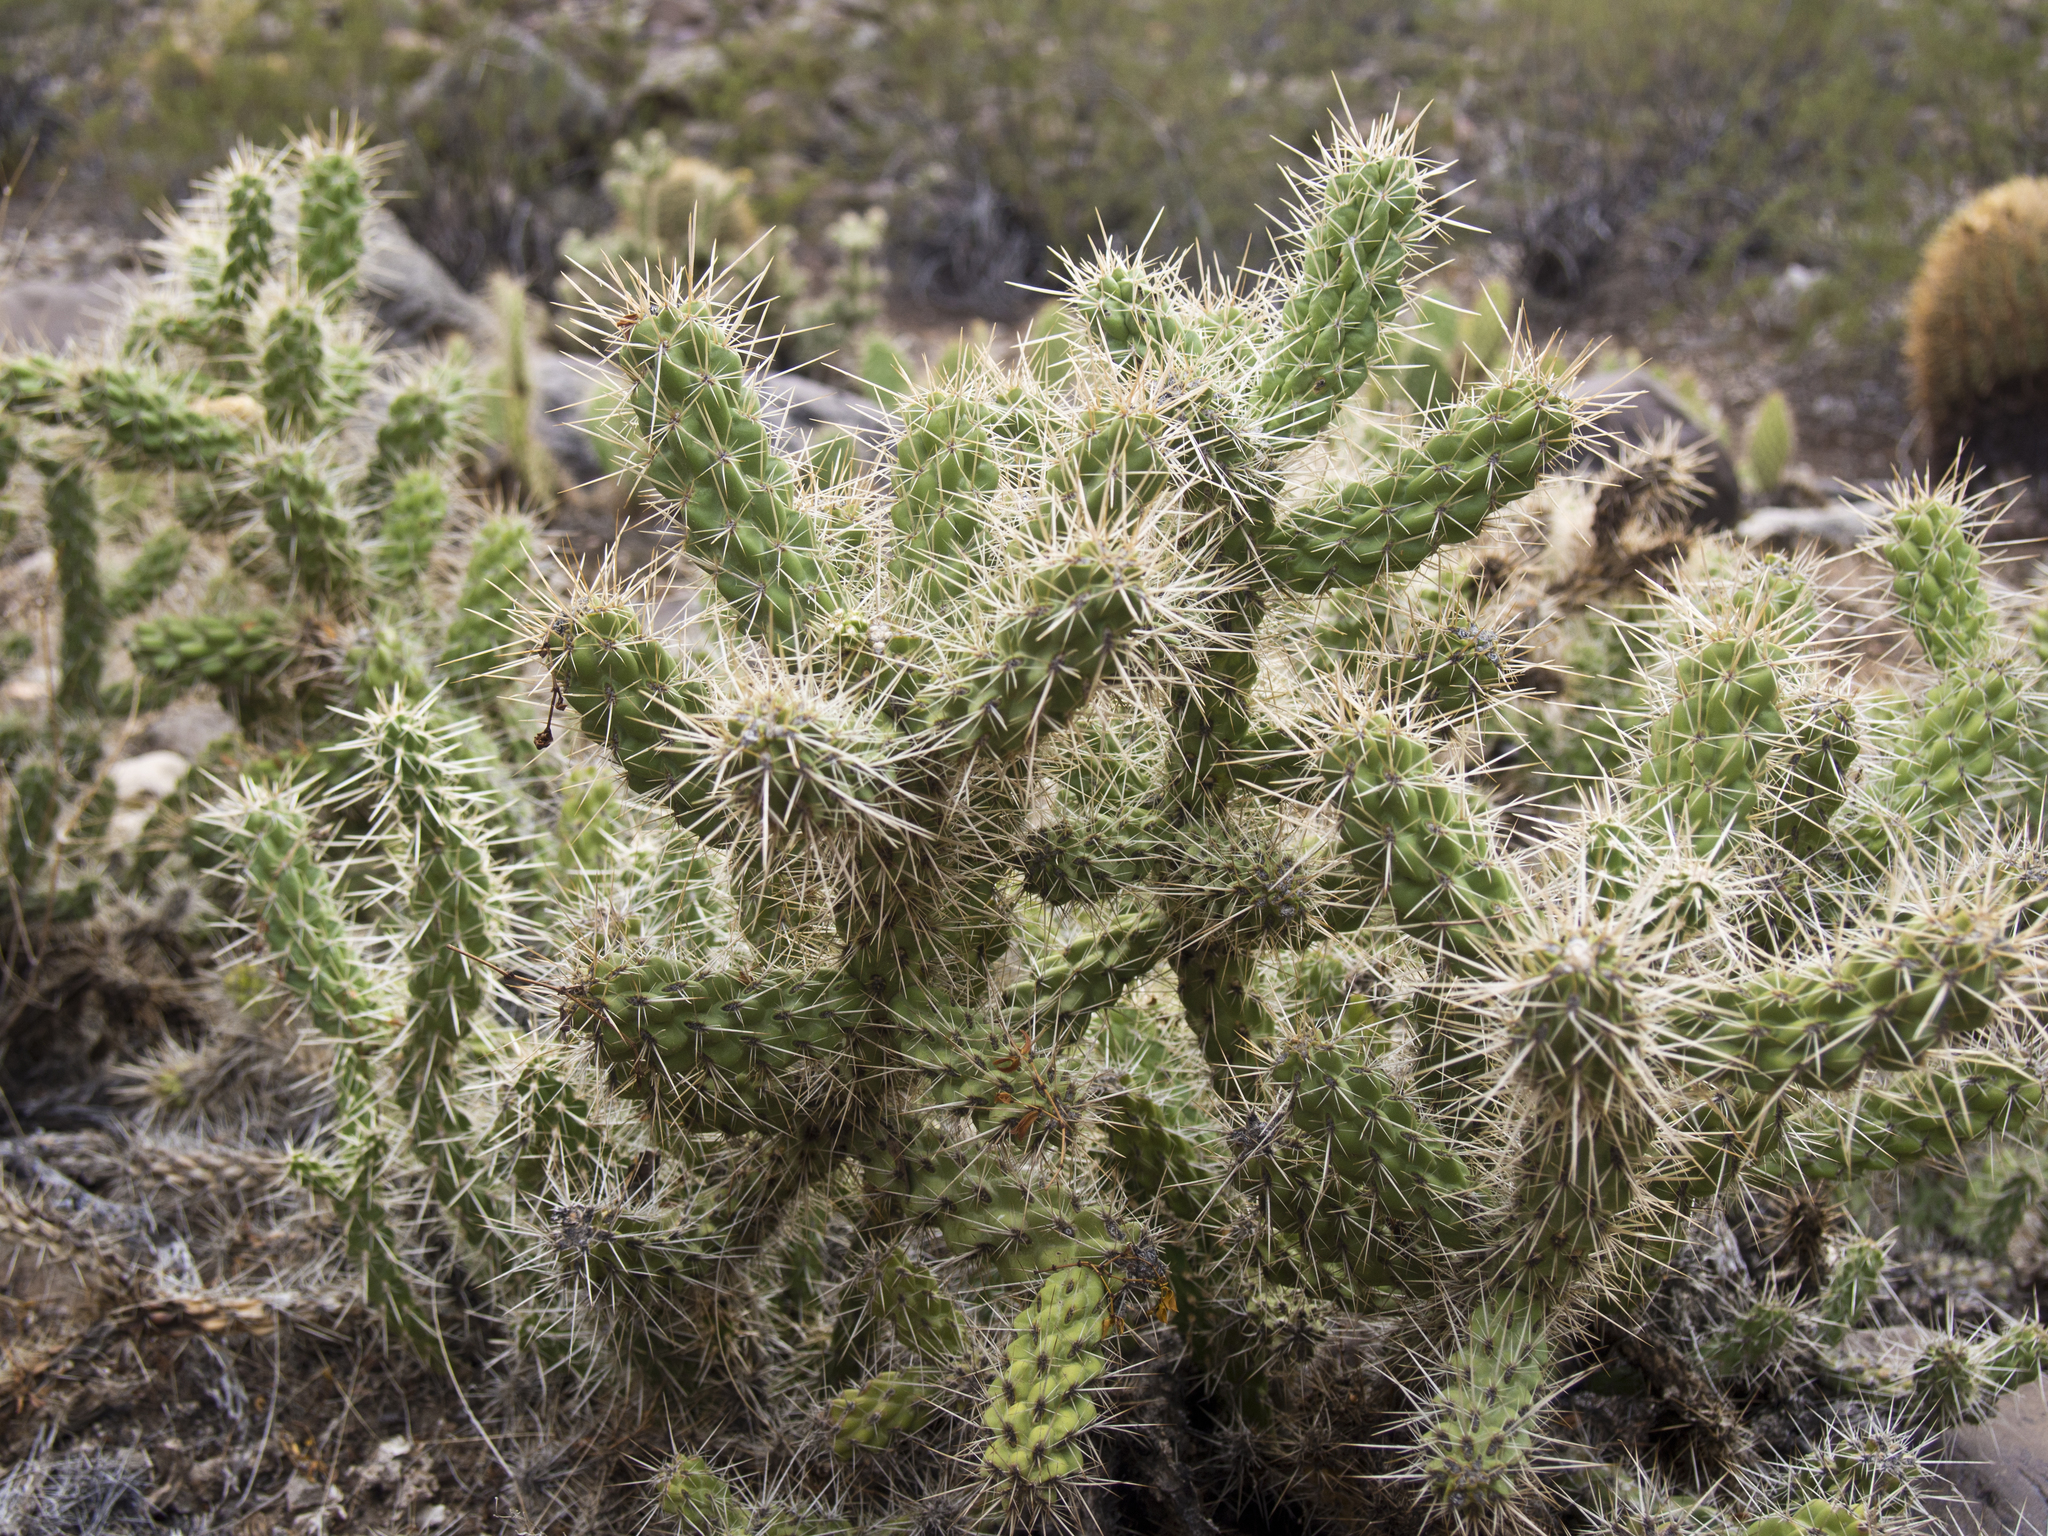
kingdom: Plantae
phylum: Tracheophyta
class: Magnoliopsida
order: Caryophyllales
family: Cactaceae
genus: Cylindropuntia
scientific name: Cylindropuntia abyssi
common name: Peach springs cholla
